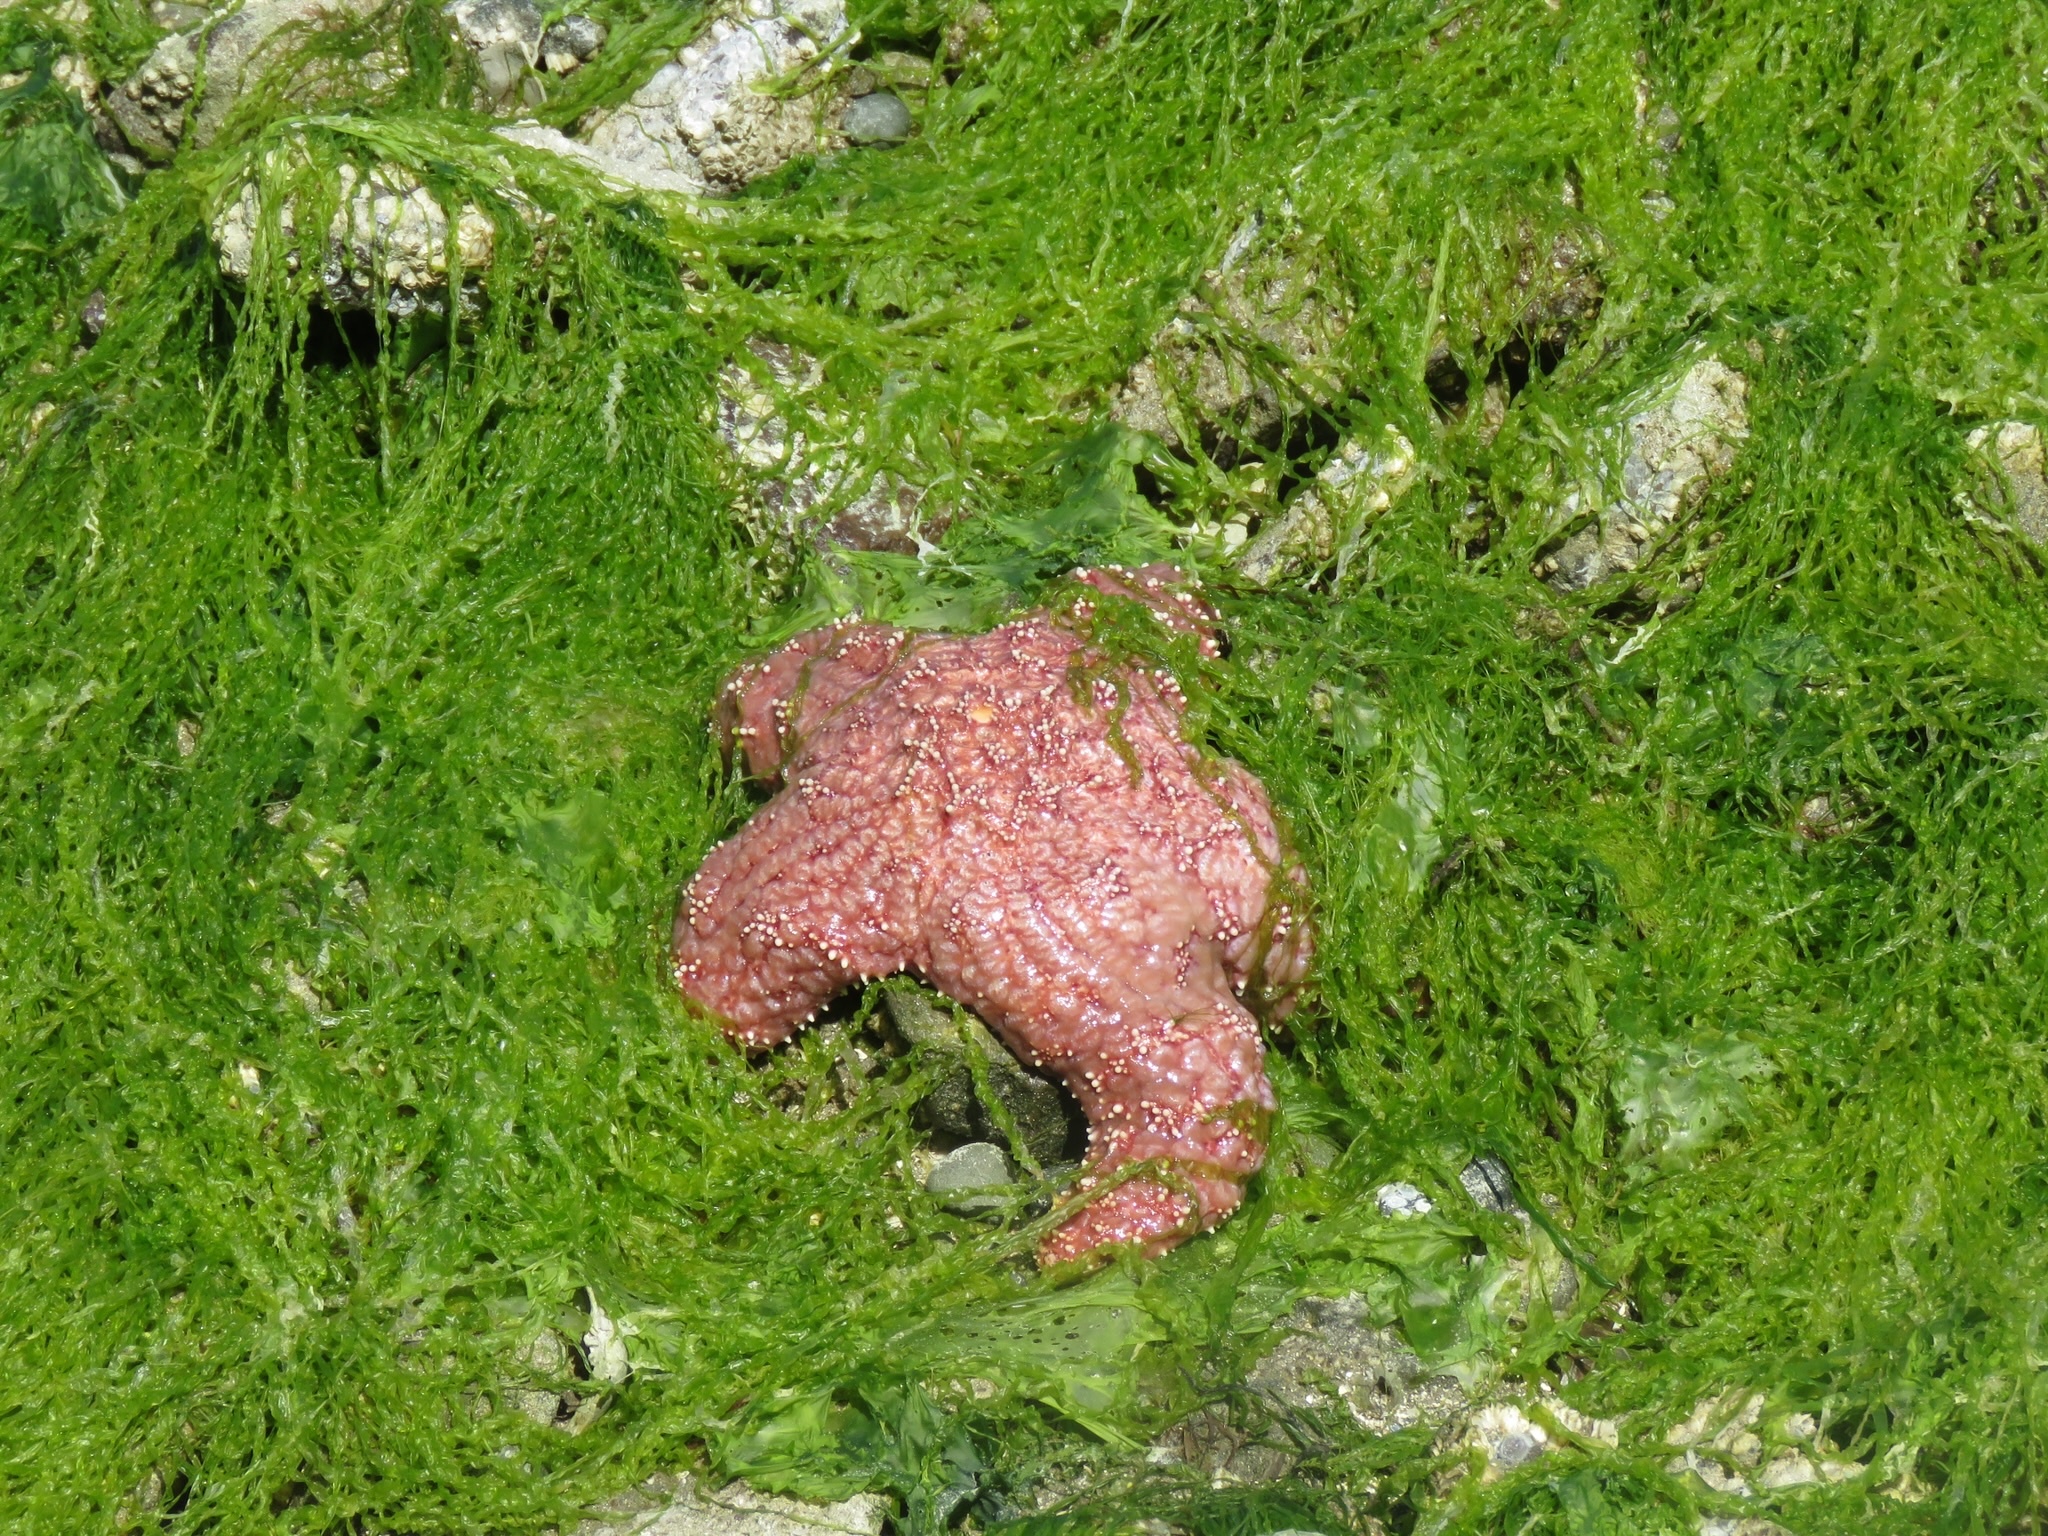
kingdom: Animalia
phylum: Echinodermata
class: Asteroidea
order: Forcipulatida
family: Asteriidae
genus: Pisaster
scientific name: Pisaster ochraceus
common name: Ochre stars
